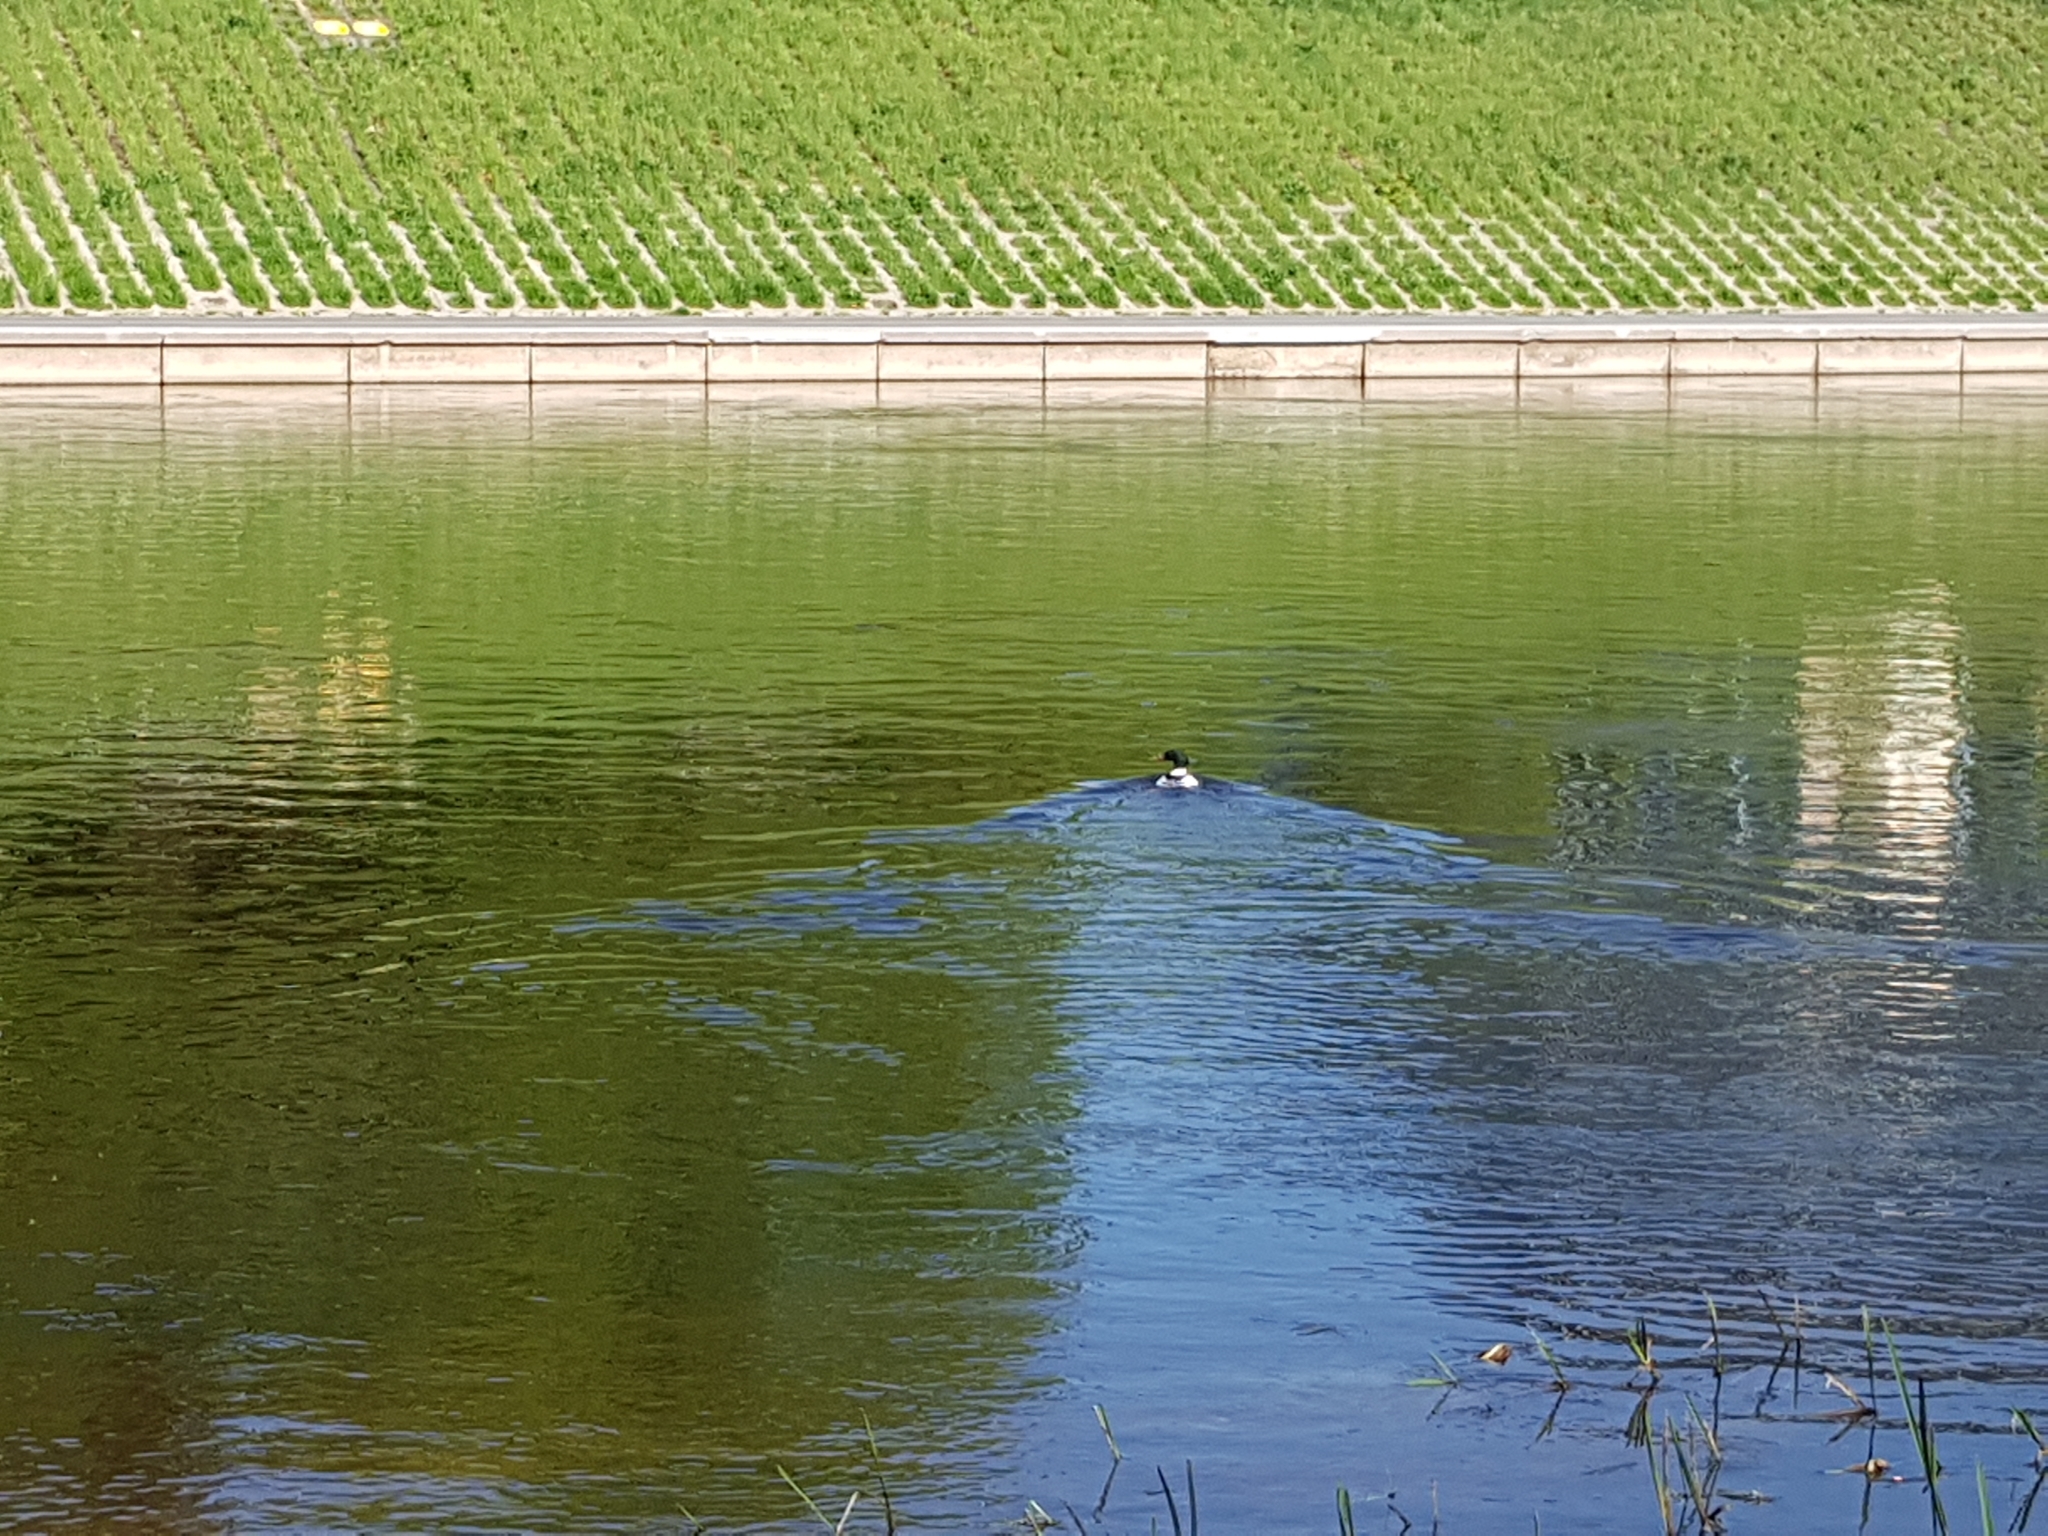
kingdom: Animalia
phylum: Chordata
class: Aves
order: Anseriformes
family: Anatidae
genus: Mergus
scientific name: Mergus merganser
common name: Common merganser
